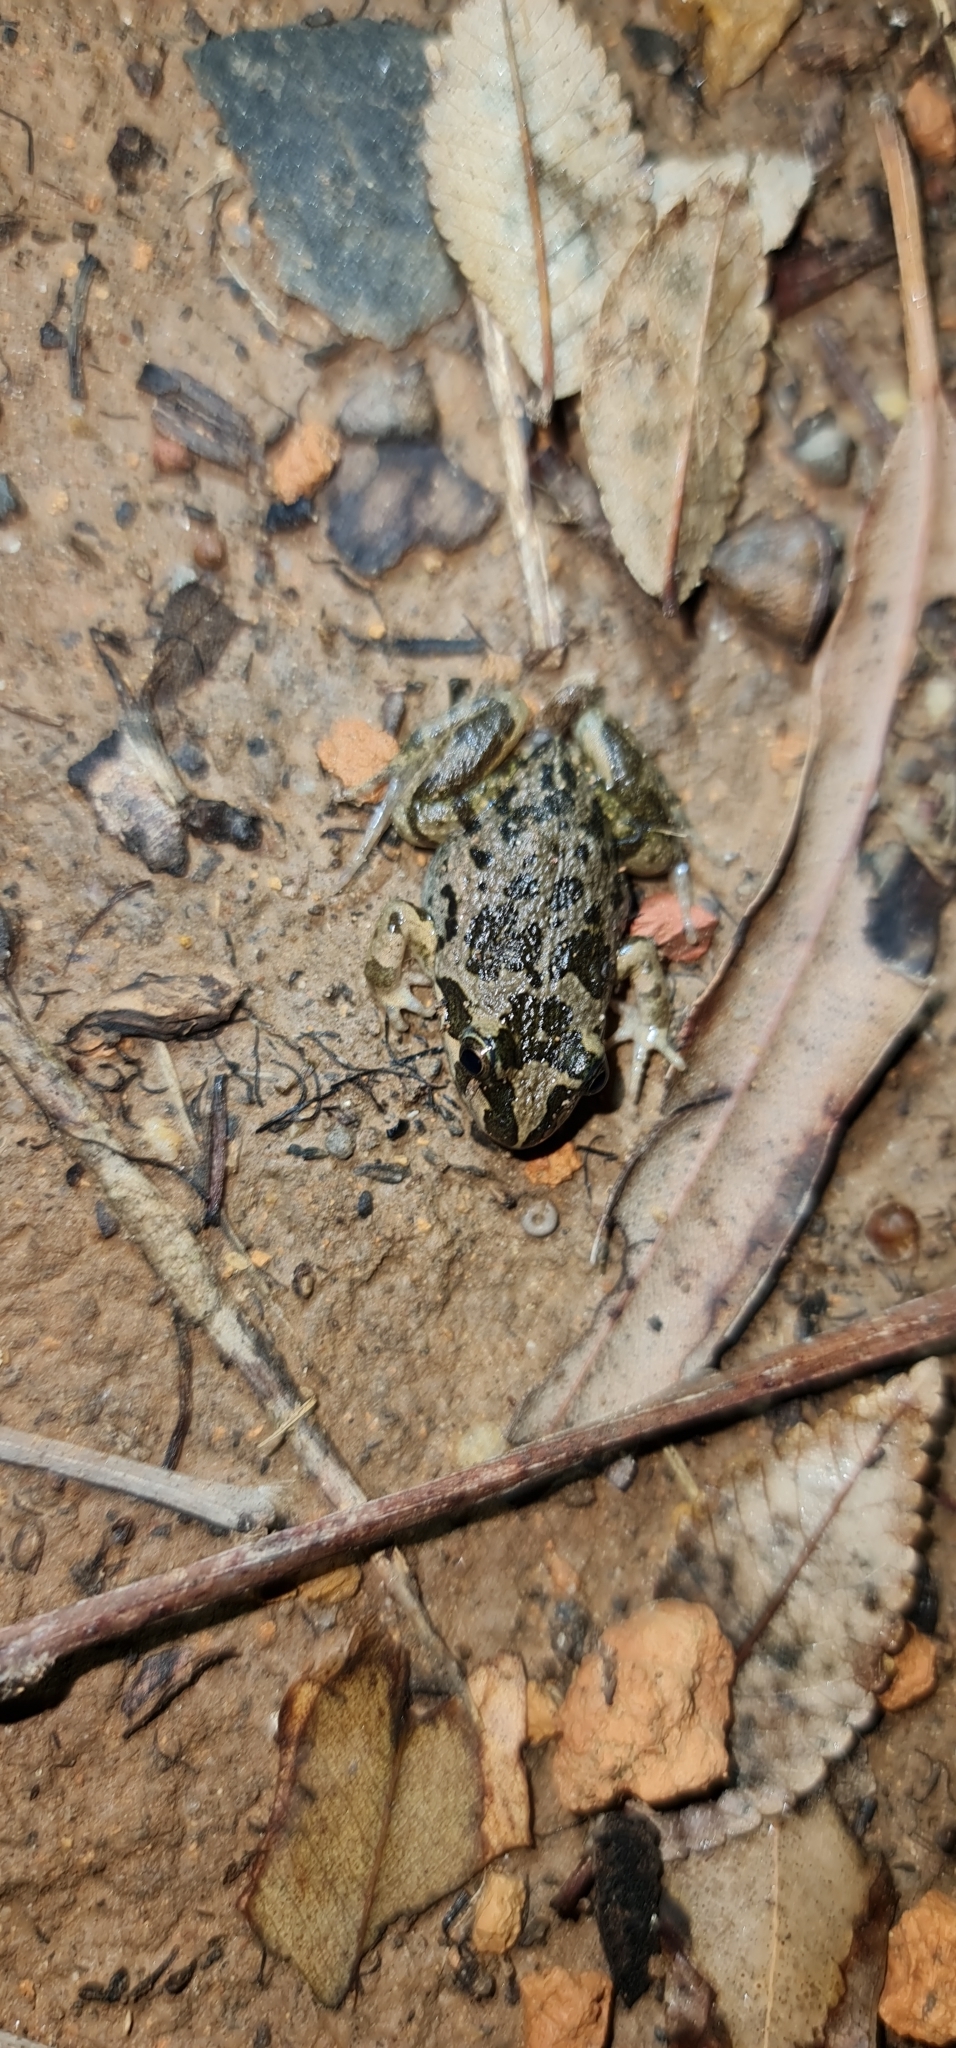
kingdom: Animalia
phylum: Chordata
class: Amphibia
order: Anura
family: Limnodynastidae
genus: Limnodynastes
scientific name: Limnodynastes tasmaniensis
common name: Spotted marsh frog
